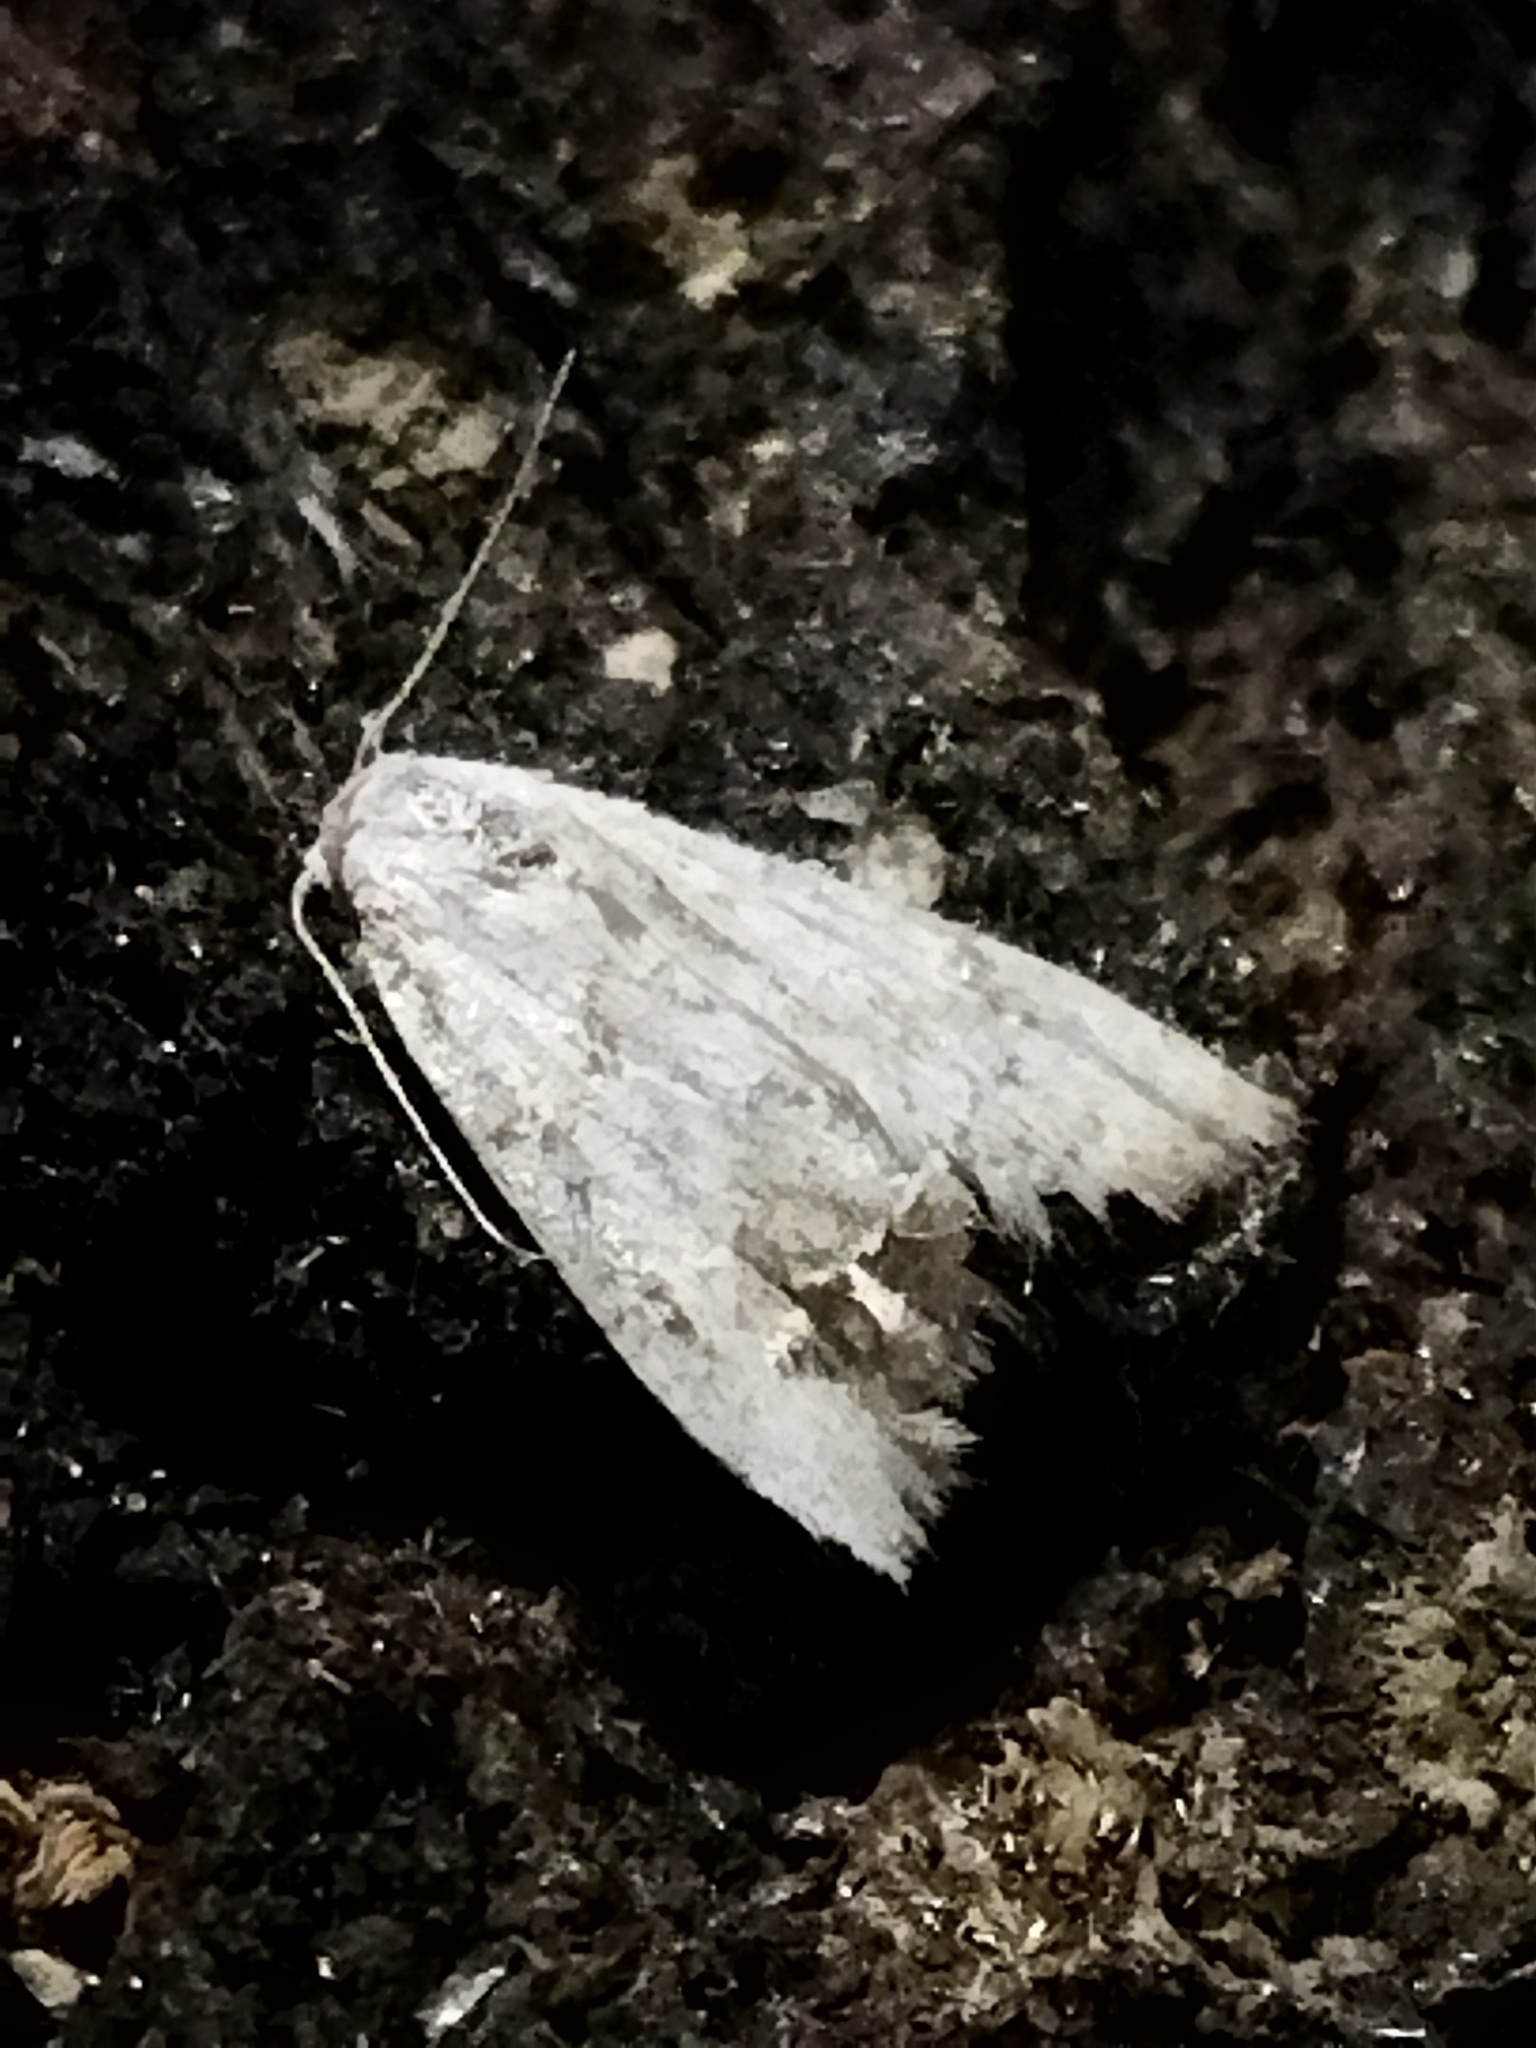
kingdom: Animalia
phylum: Arthropoda
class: Insecta
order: Lepidoptera
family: Nolidae
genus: Nola
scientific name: Nola aerugula
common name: Scarce black arches
